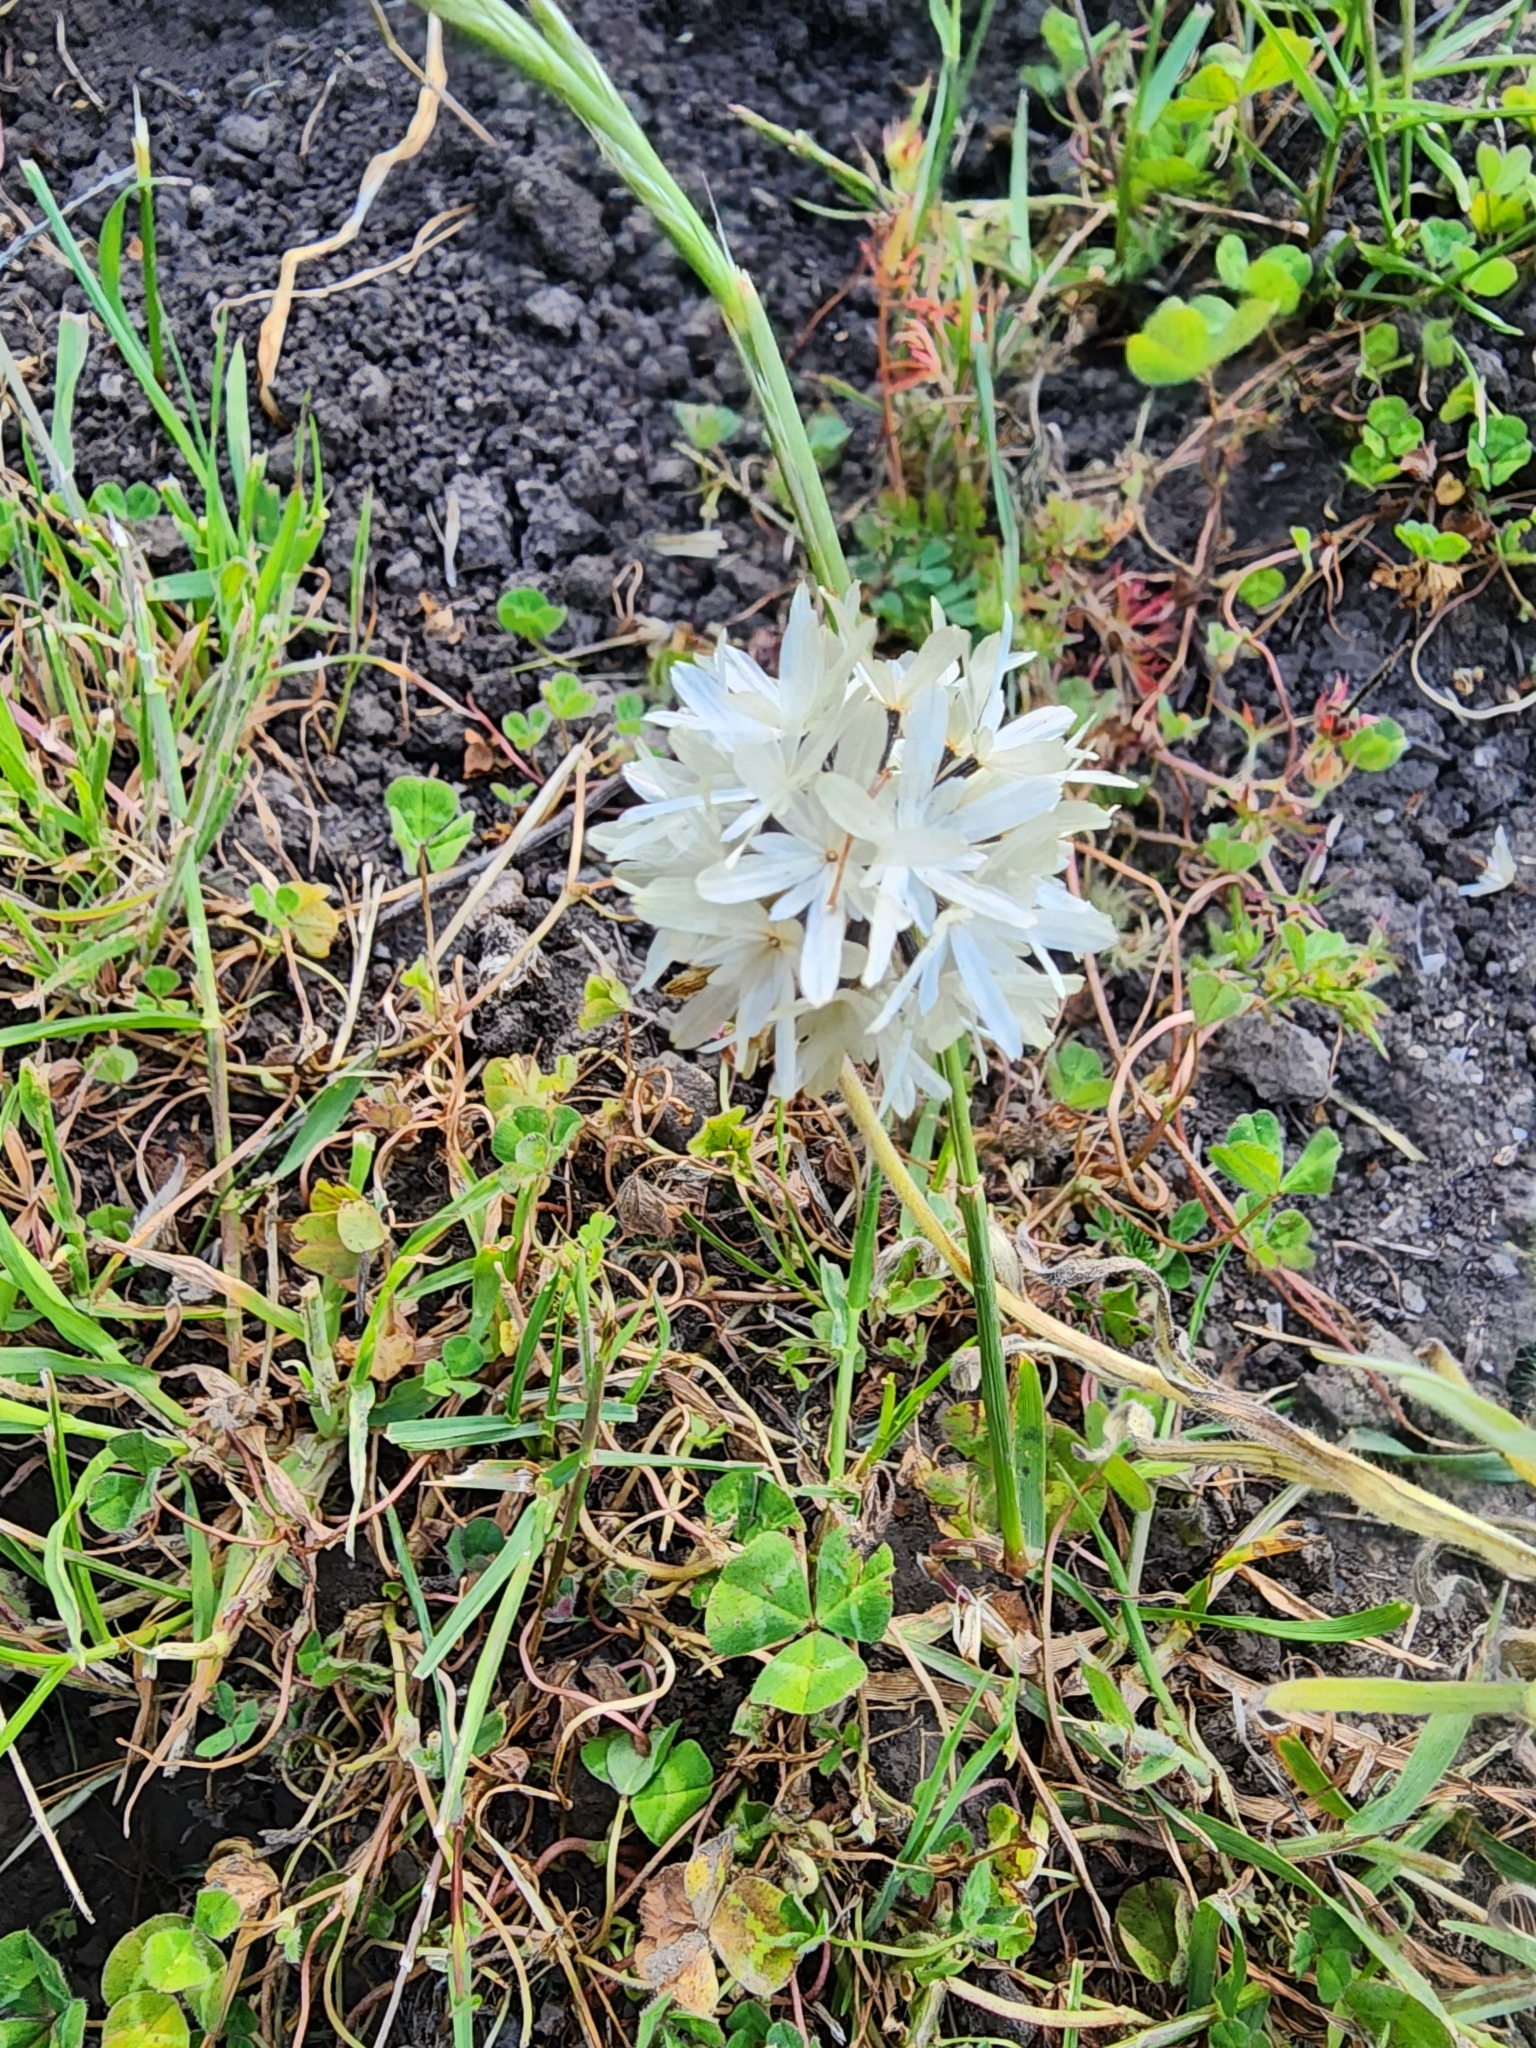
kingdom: Plantae
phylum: Tracheophyta
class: Magnoliopsida
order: Asterales
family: Asteraceae
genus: Achyrachaena
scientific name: Achyrachaena mollis
